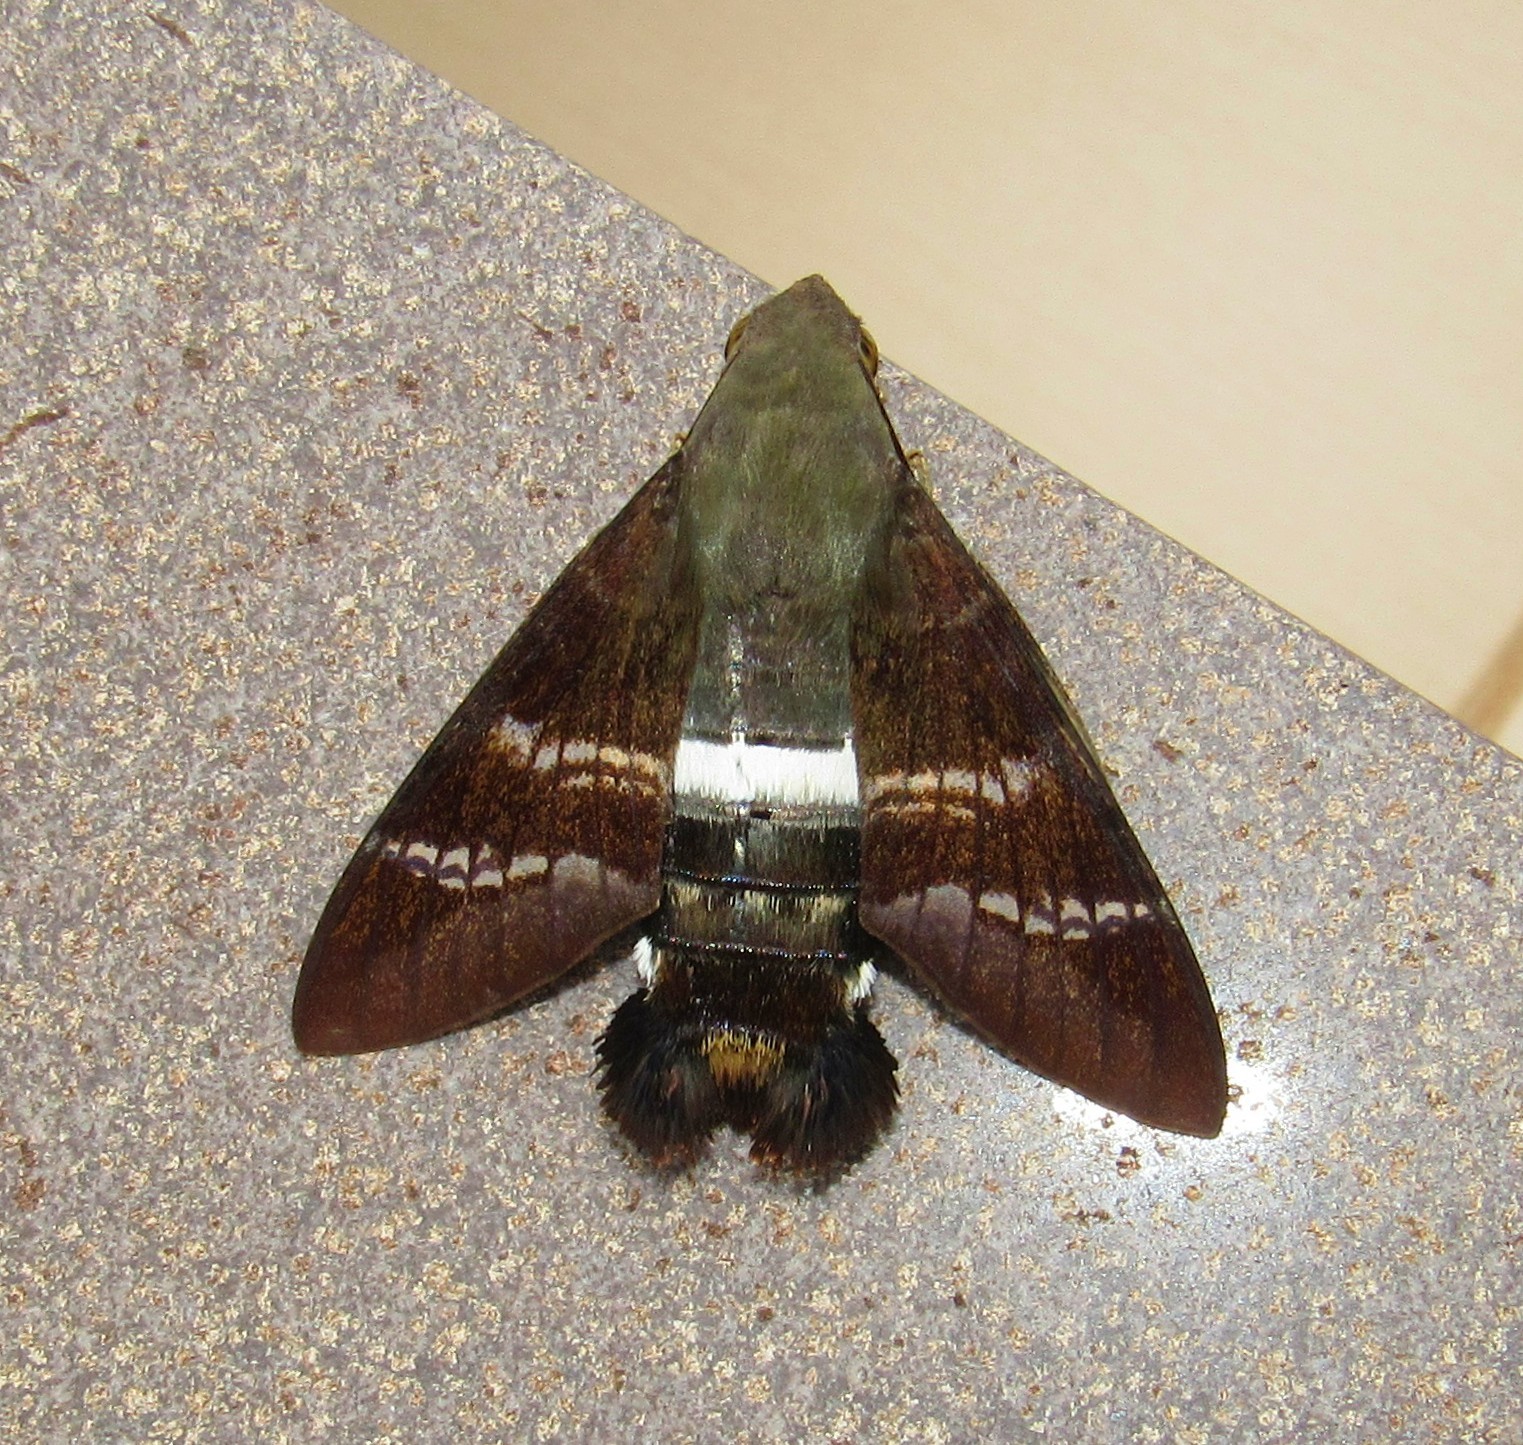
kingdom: Animalia
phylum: Arthropoda
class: Insecta
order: Lepidoptera
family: Sphingidae
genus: Aellopos
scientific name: Aellopos fadus
